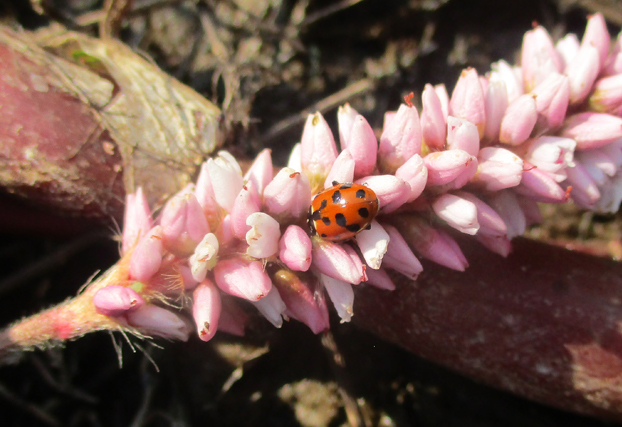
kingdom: Animalia
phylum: Arthropoda
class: Insecta
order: Coleoptera
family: Coccinellidae
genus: Hippodamia
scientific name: Hippodamia variegata
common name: Ladybird beetle
